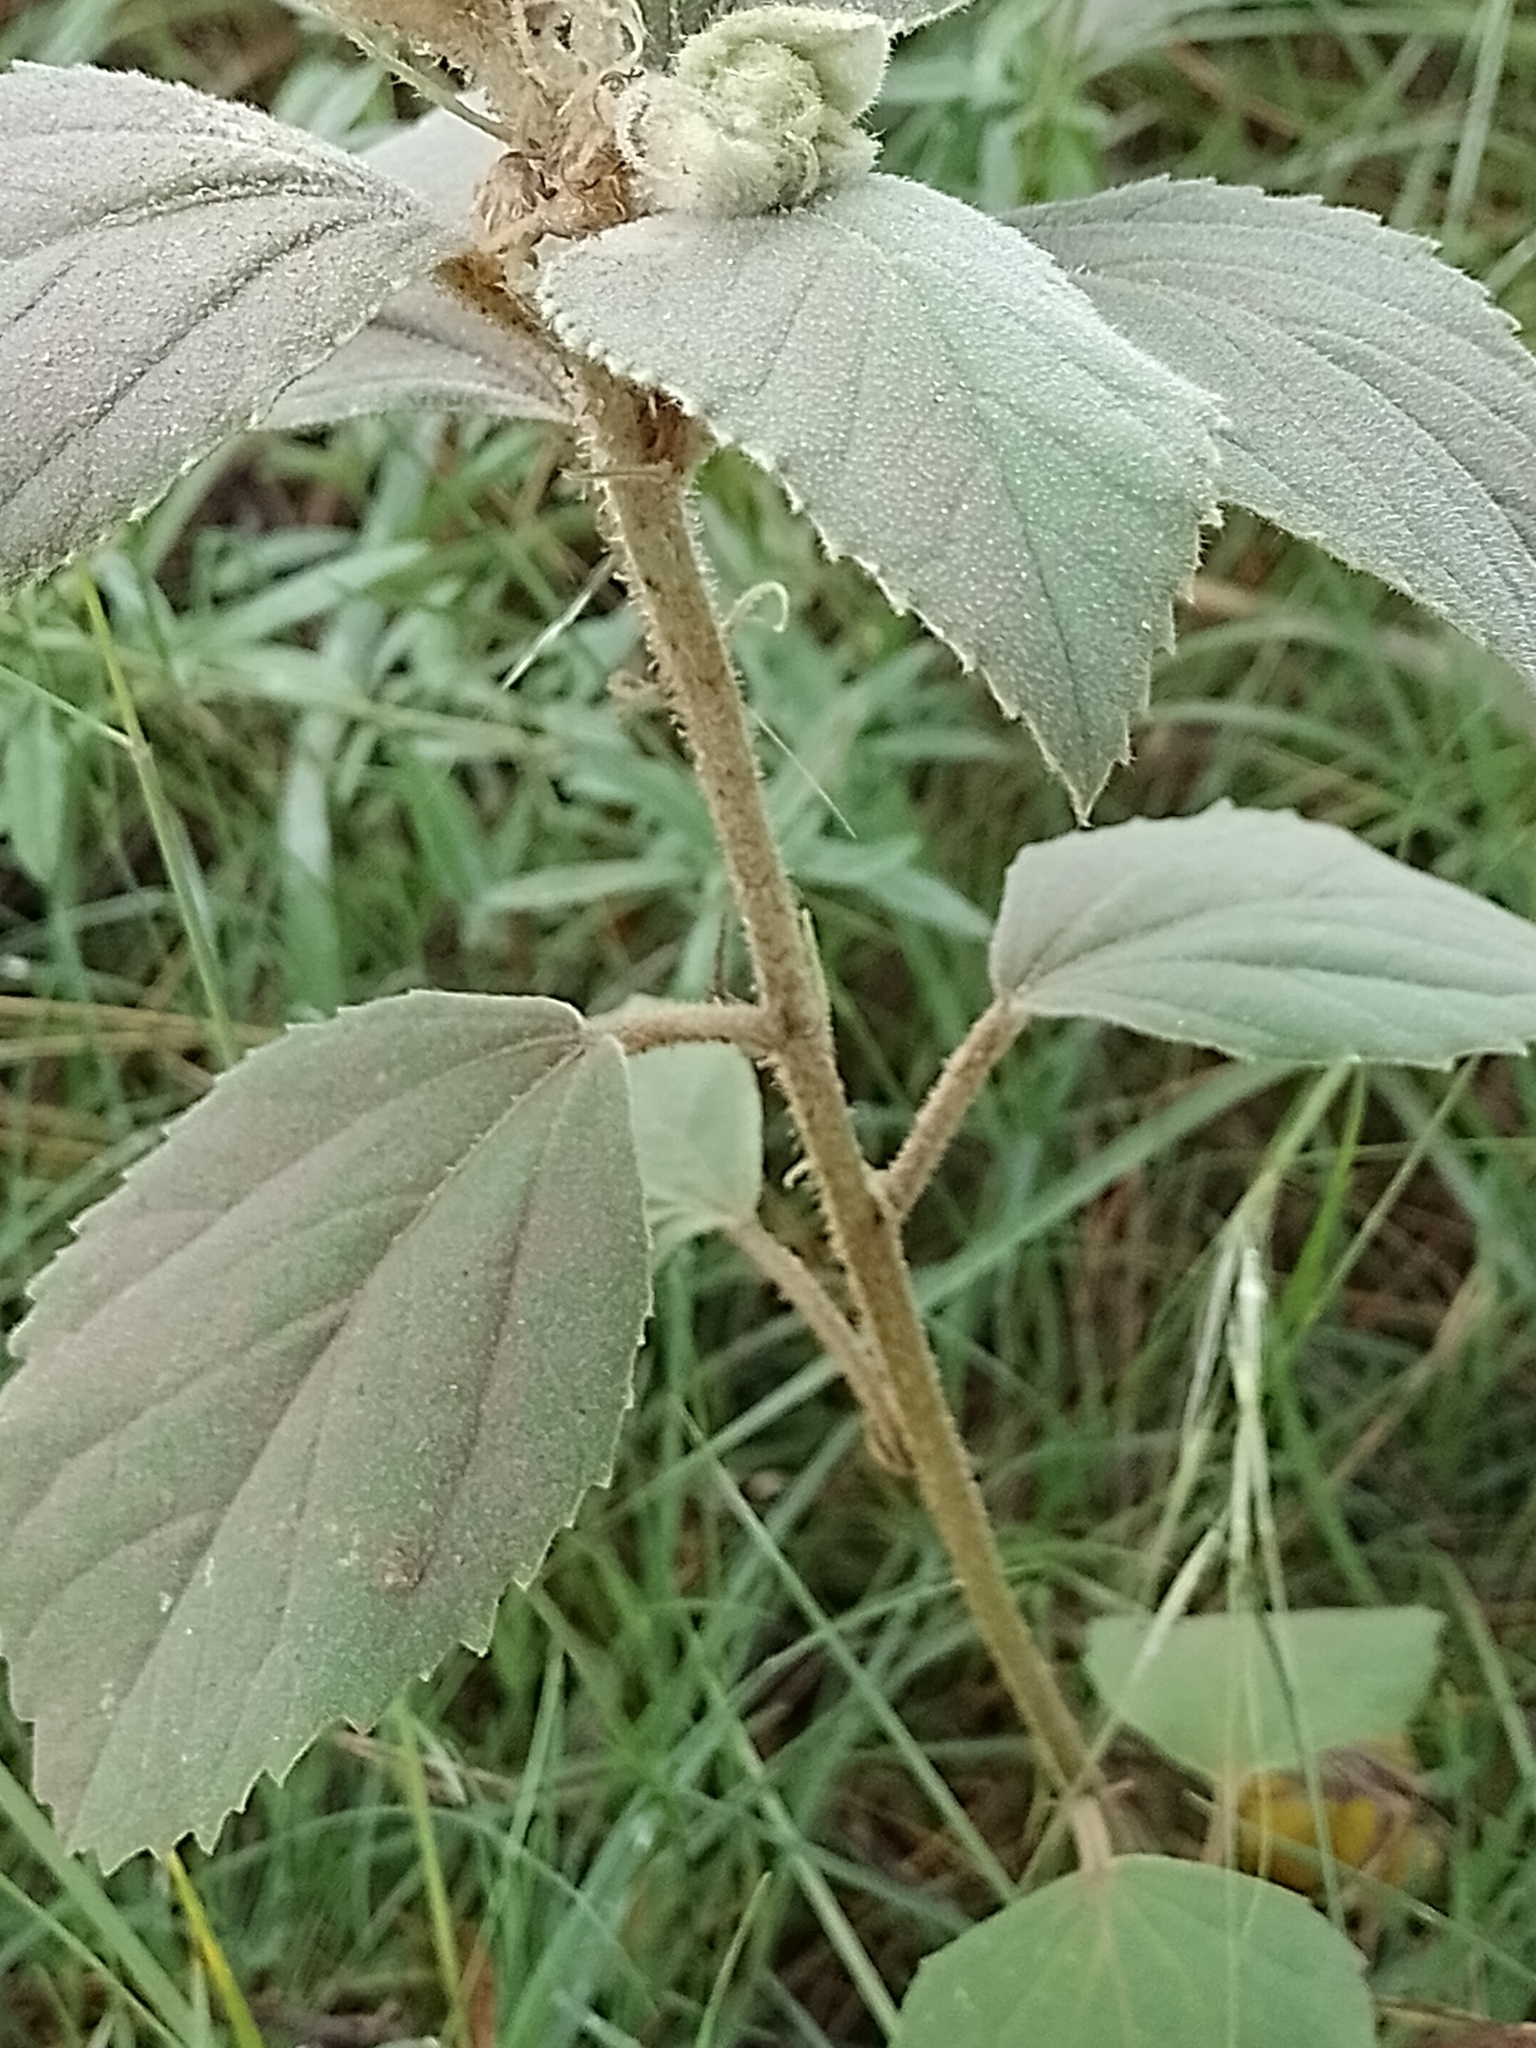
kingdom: Plantae
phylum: Tracheophyta
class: Magnoliopsida
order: Malpighiales
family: Euphorbiaceae
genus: Croton
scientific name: Croton subpannosus
